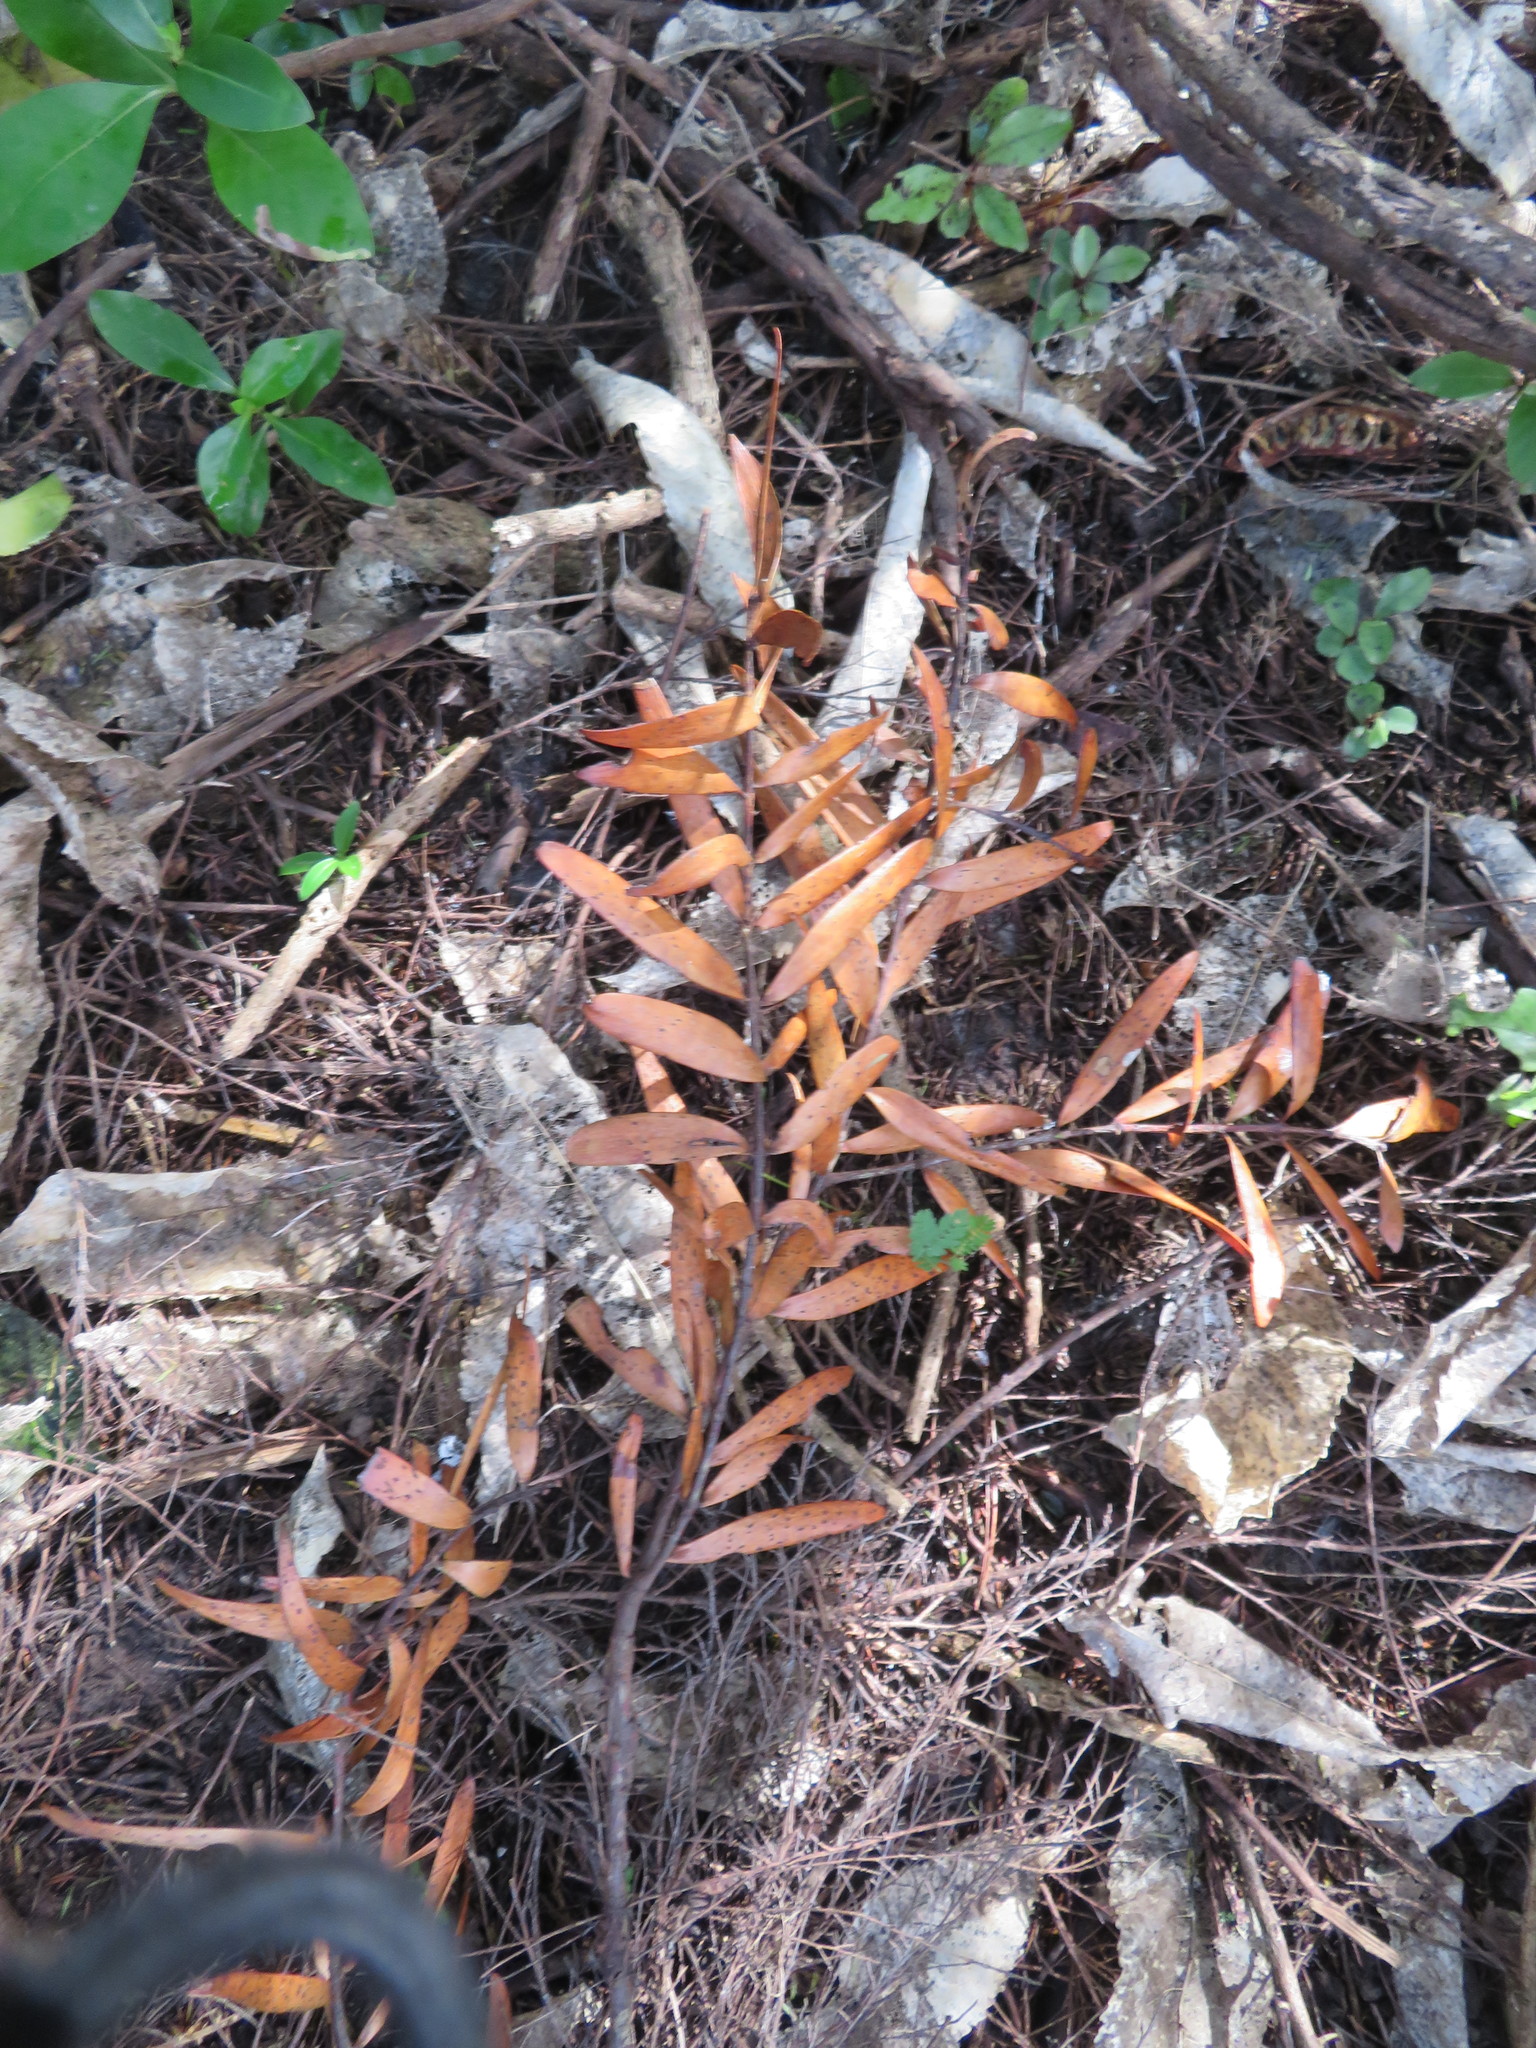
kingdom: Plantae
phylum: Tracheophyta
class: Pinopsida
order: Pinales
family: Araucariaceae
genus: Agathis
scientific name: Agathis australis
